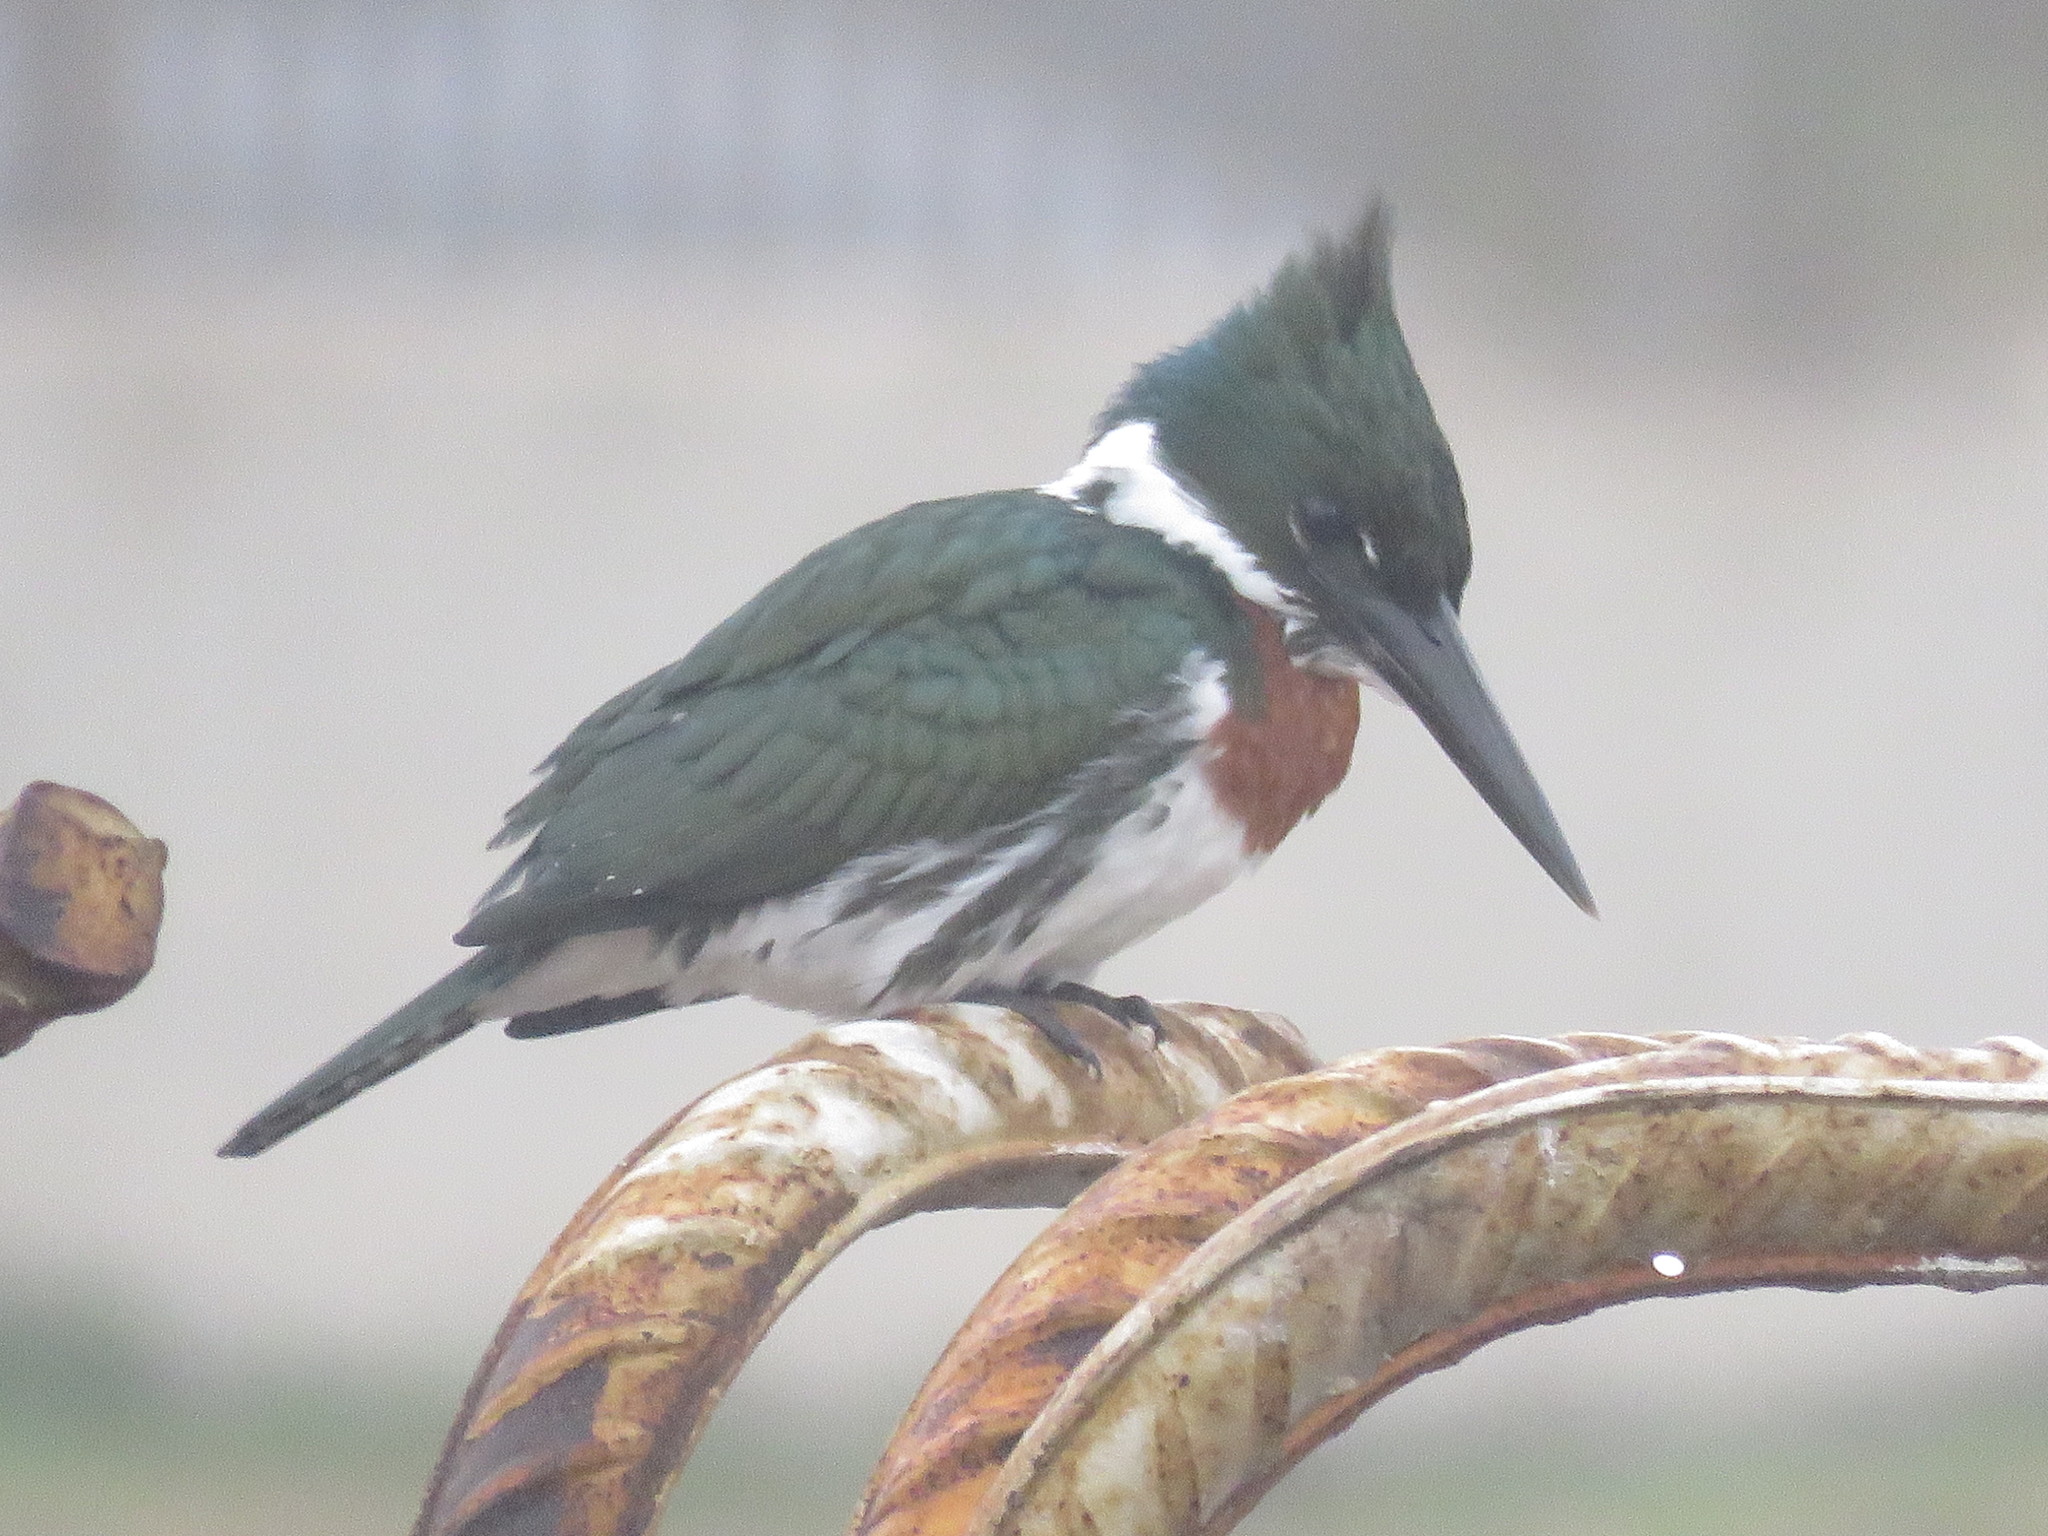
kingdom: Animalia
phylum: Chordata
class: Aves
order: Coraciiformes
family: Alcedinidae
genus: Chloroceryle
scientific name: Chloroceryle amazona
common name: Amazon kingfisher
